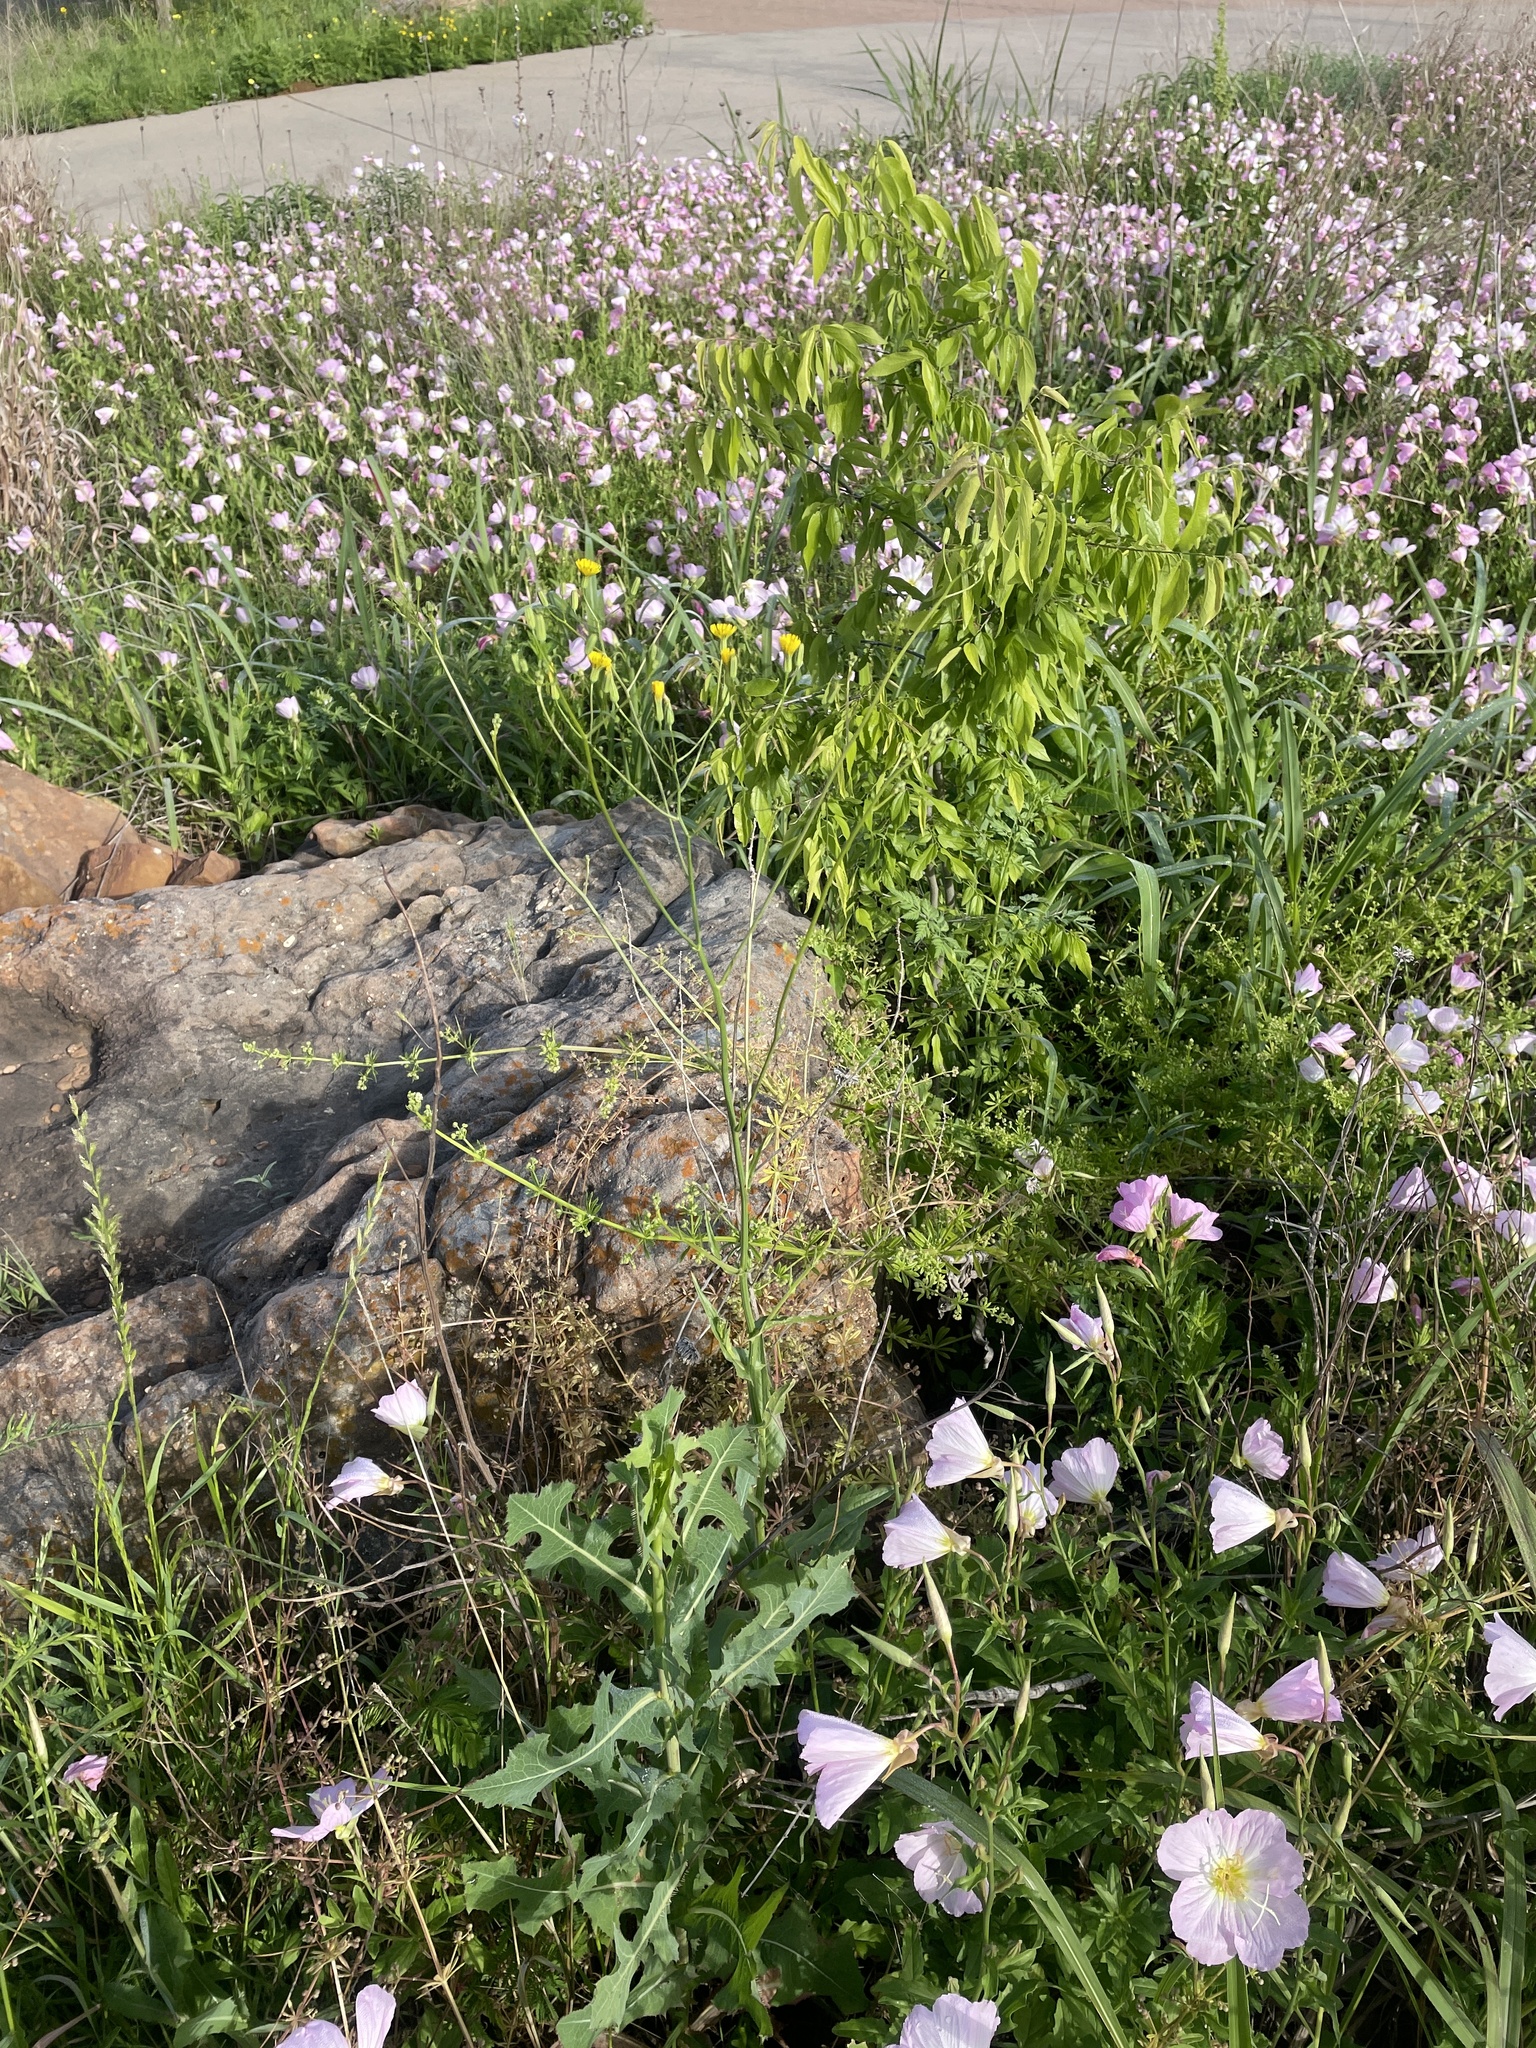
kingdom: Plantae
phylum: Tracheophyta
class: Magnoliopsida
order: Asterales
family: Asteraceae
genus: Crepis
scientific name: Crepis pulchra
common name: Hawk's-beard
